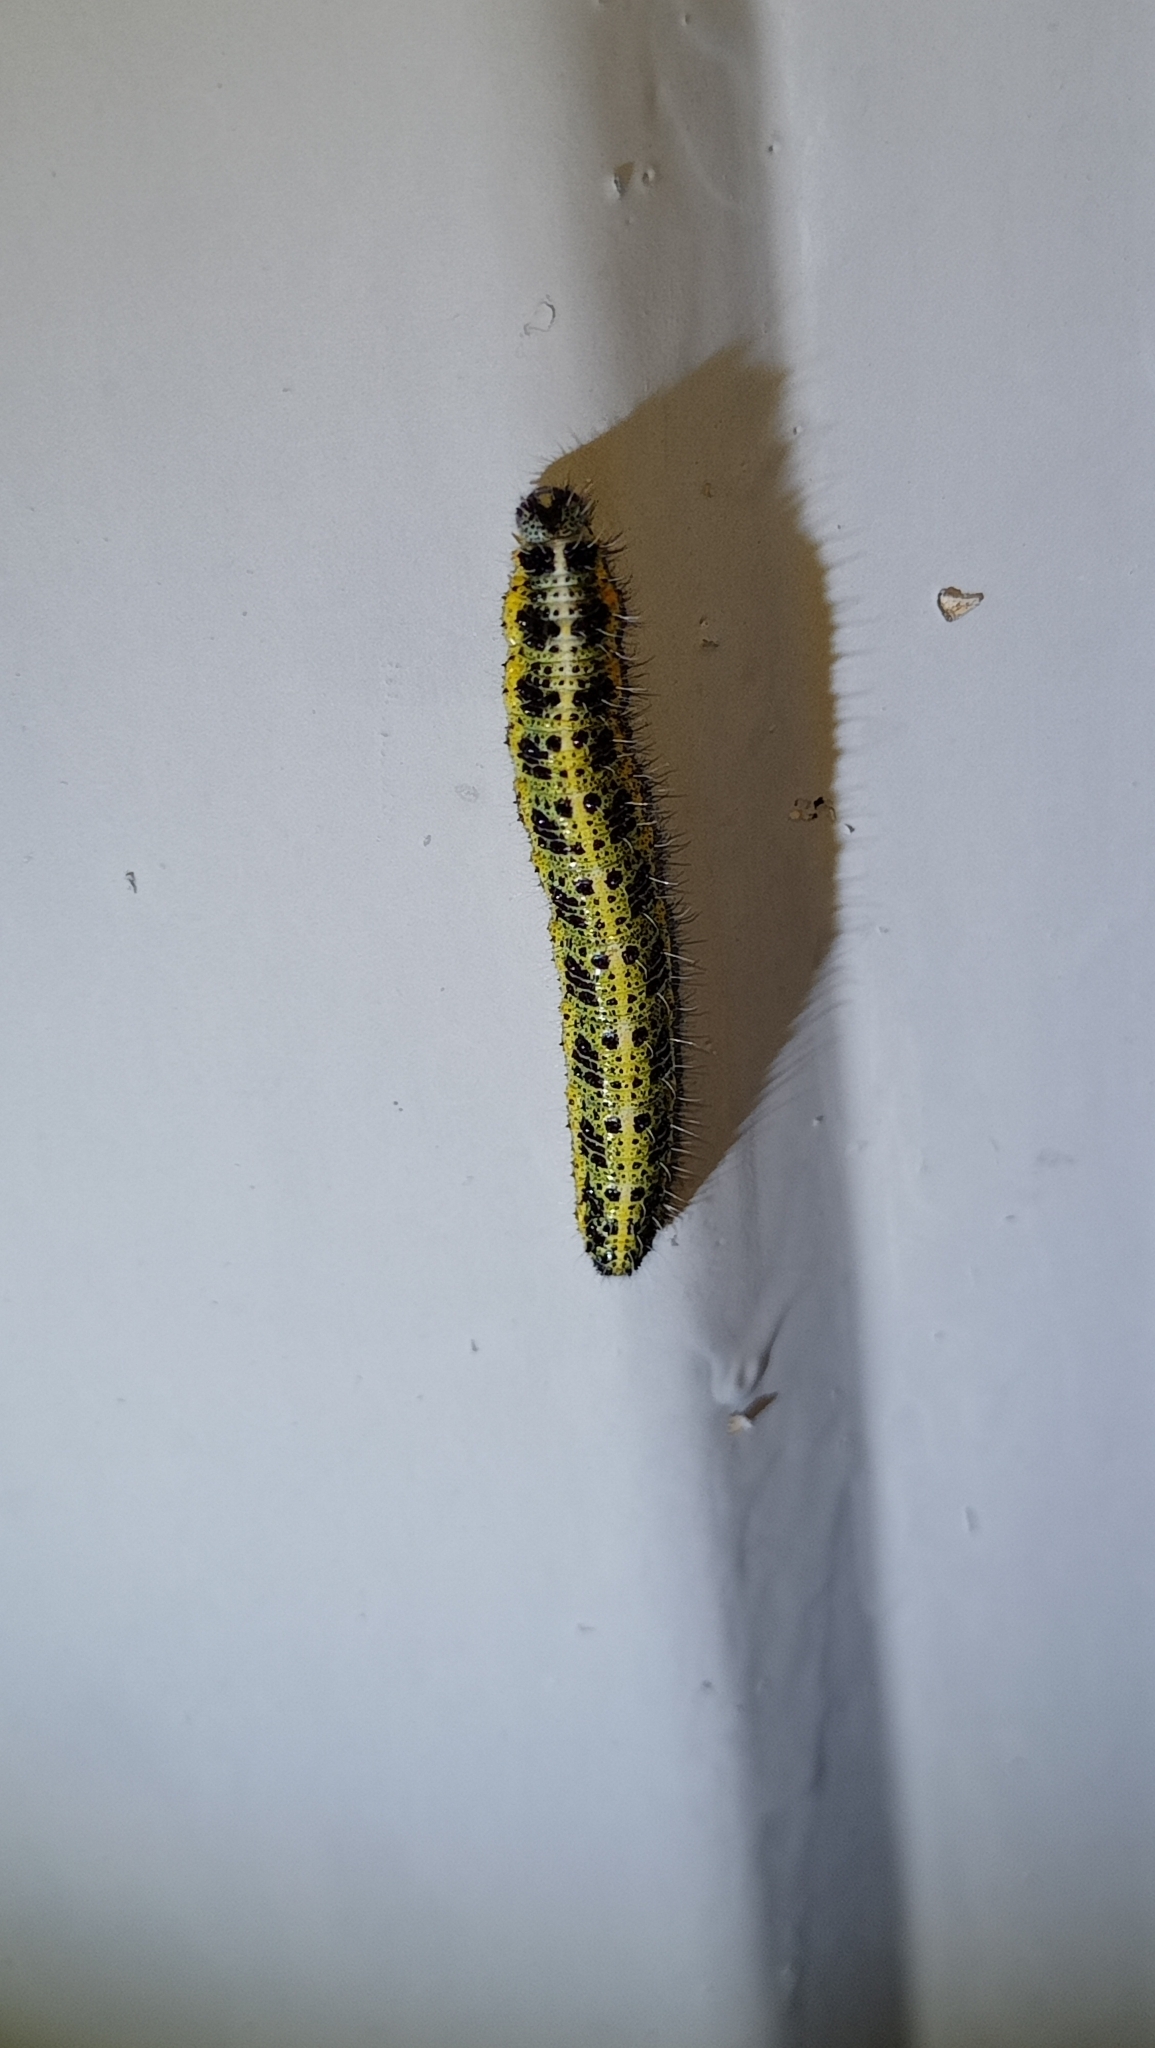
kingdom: Animalia
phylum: Arthropoda
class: Insecta
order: Lepidoptera
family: Pieridae
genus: Pieris
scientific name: Pieris brassicae
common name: Large white
